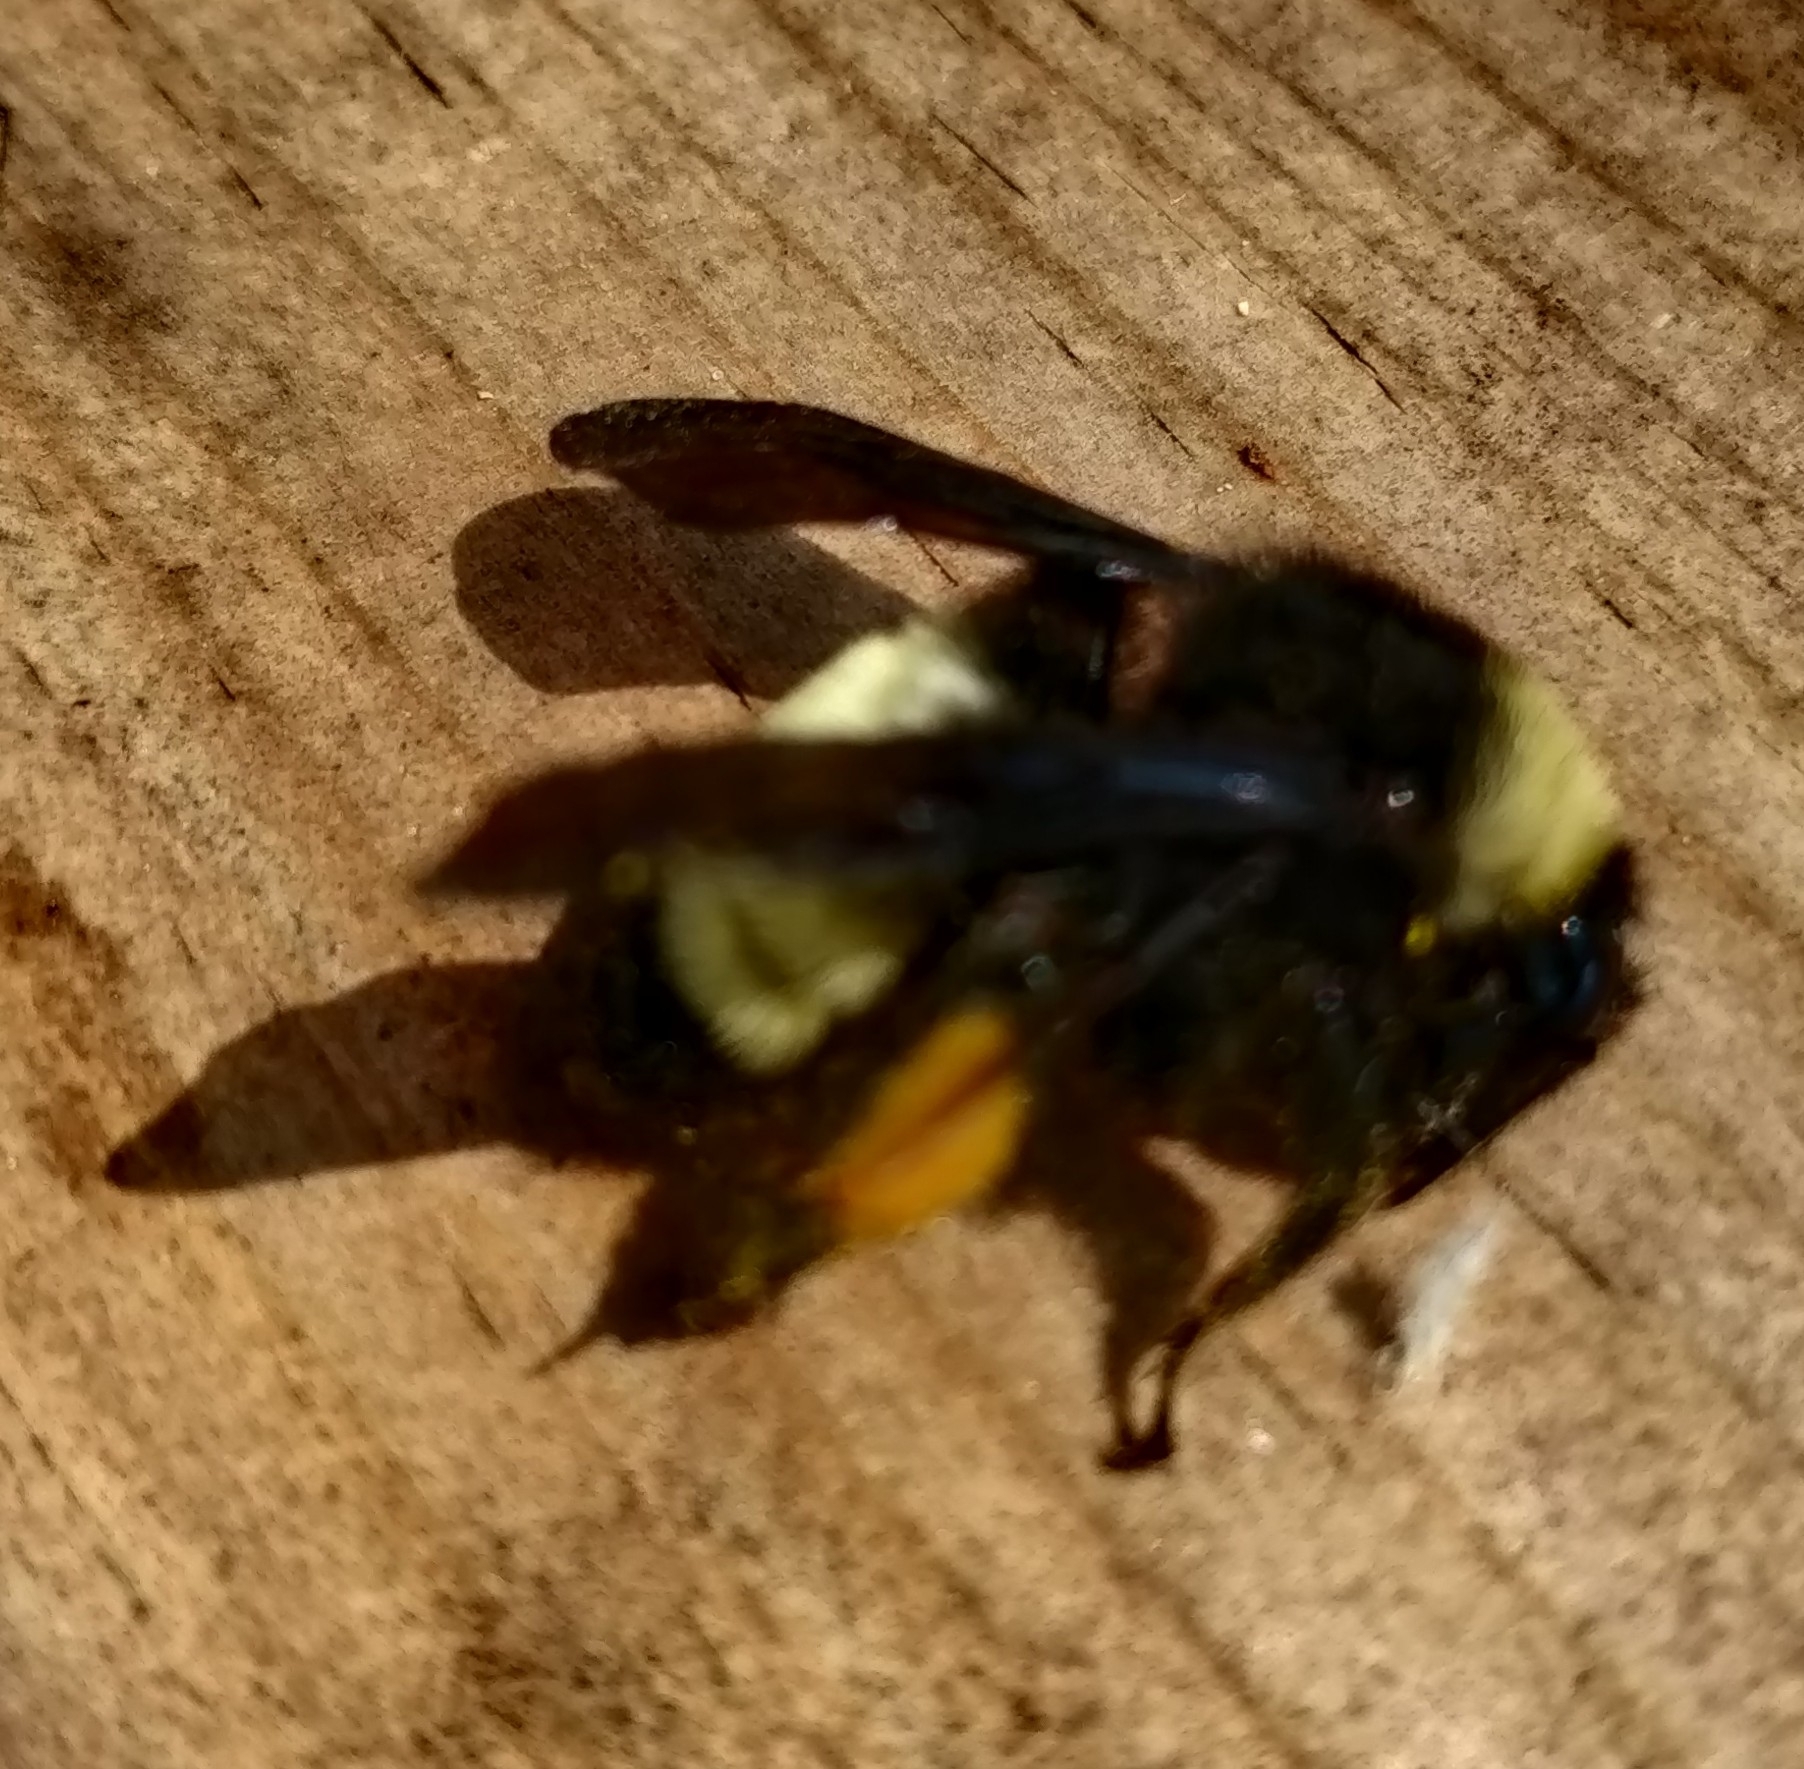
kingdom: Animalia
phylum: Arthropoda
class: Insecta
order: Hymenoptera
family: Apidae
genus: Bombus
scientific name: Bombus pensylvanicus
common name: Bumble bee
